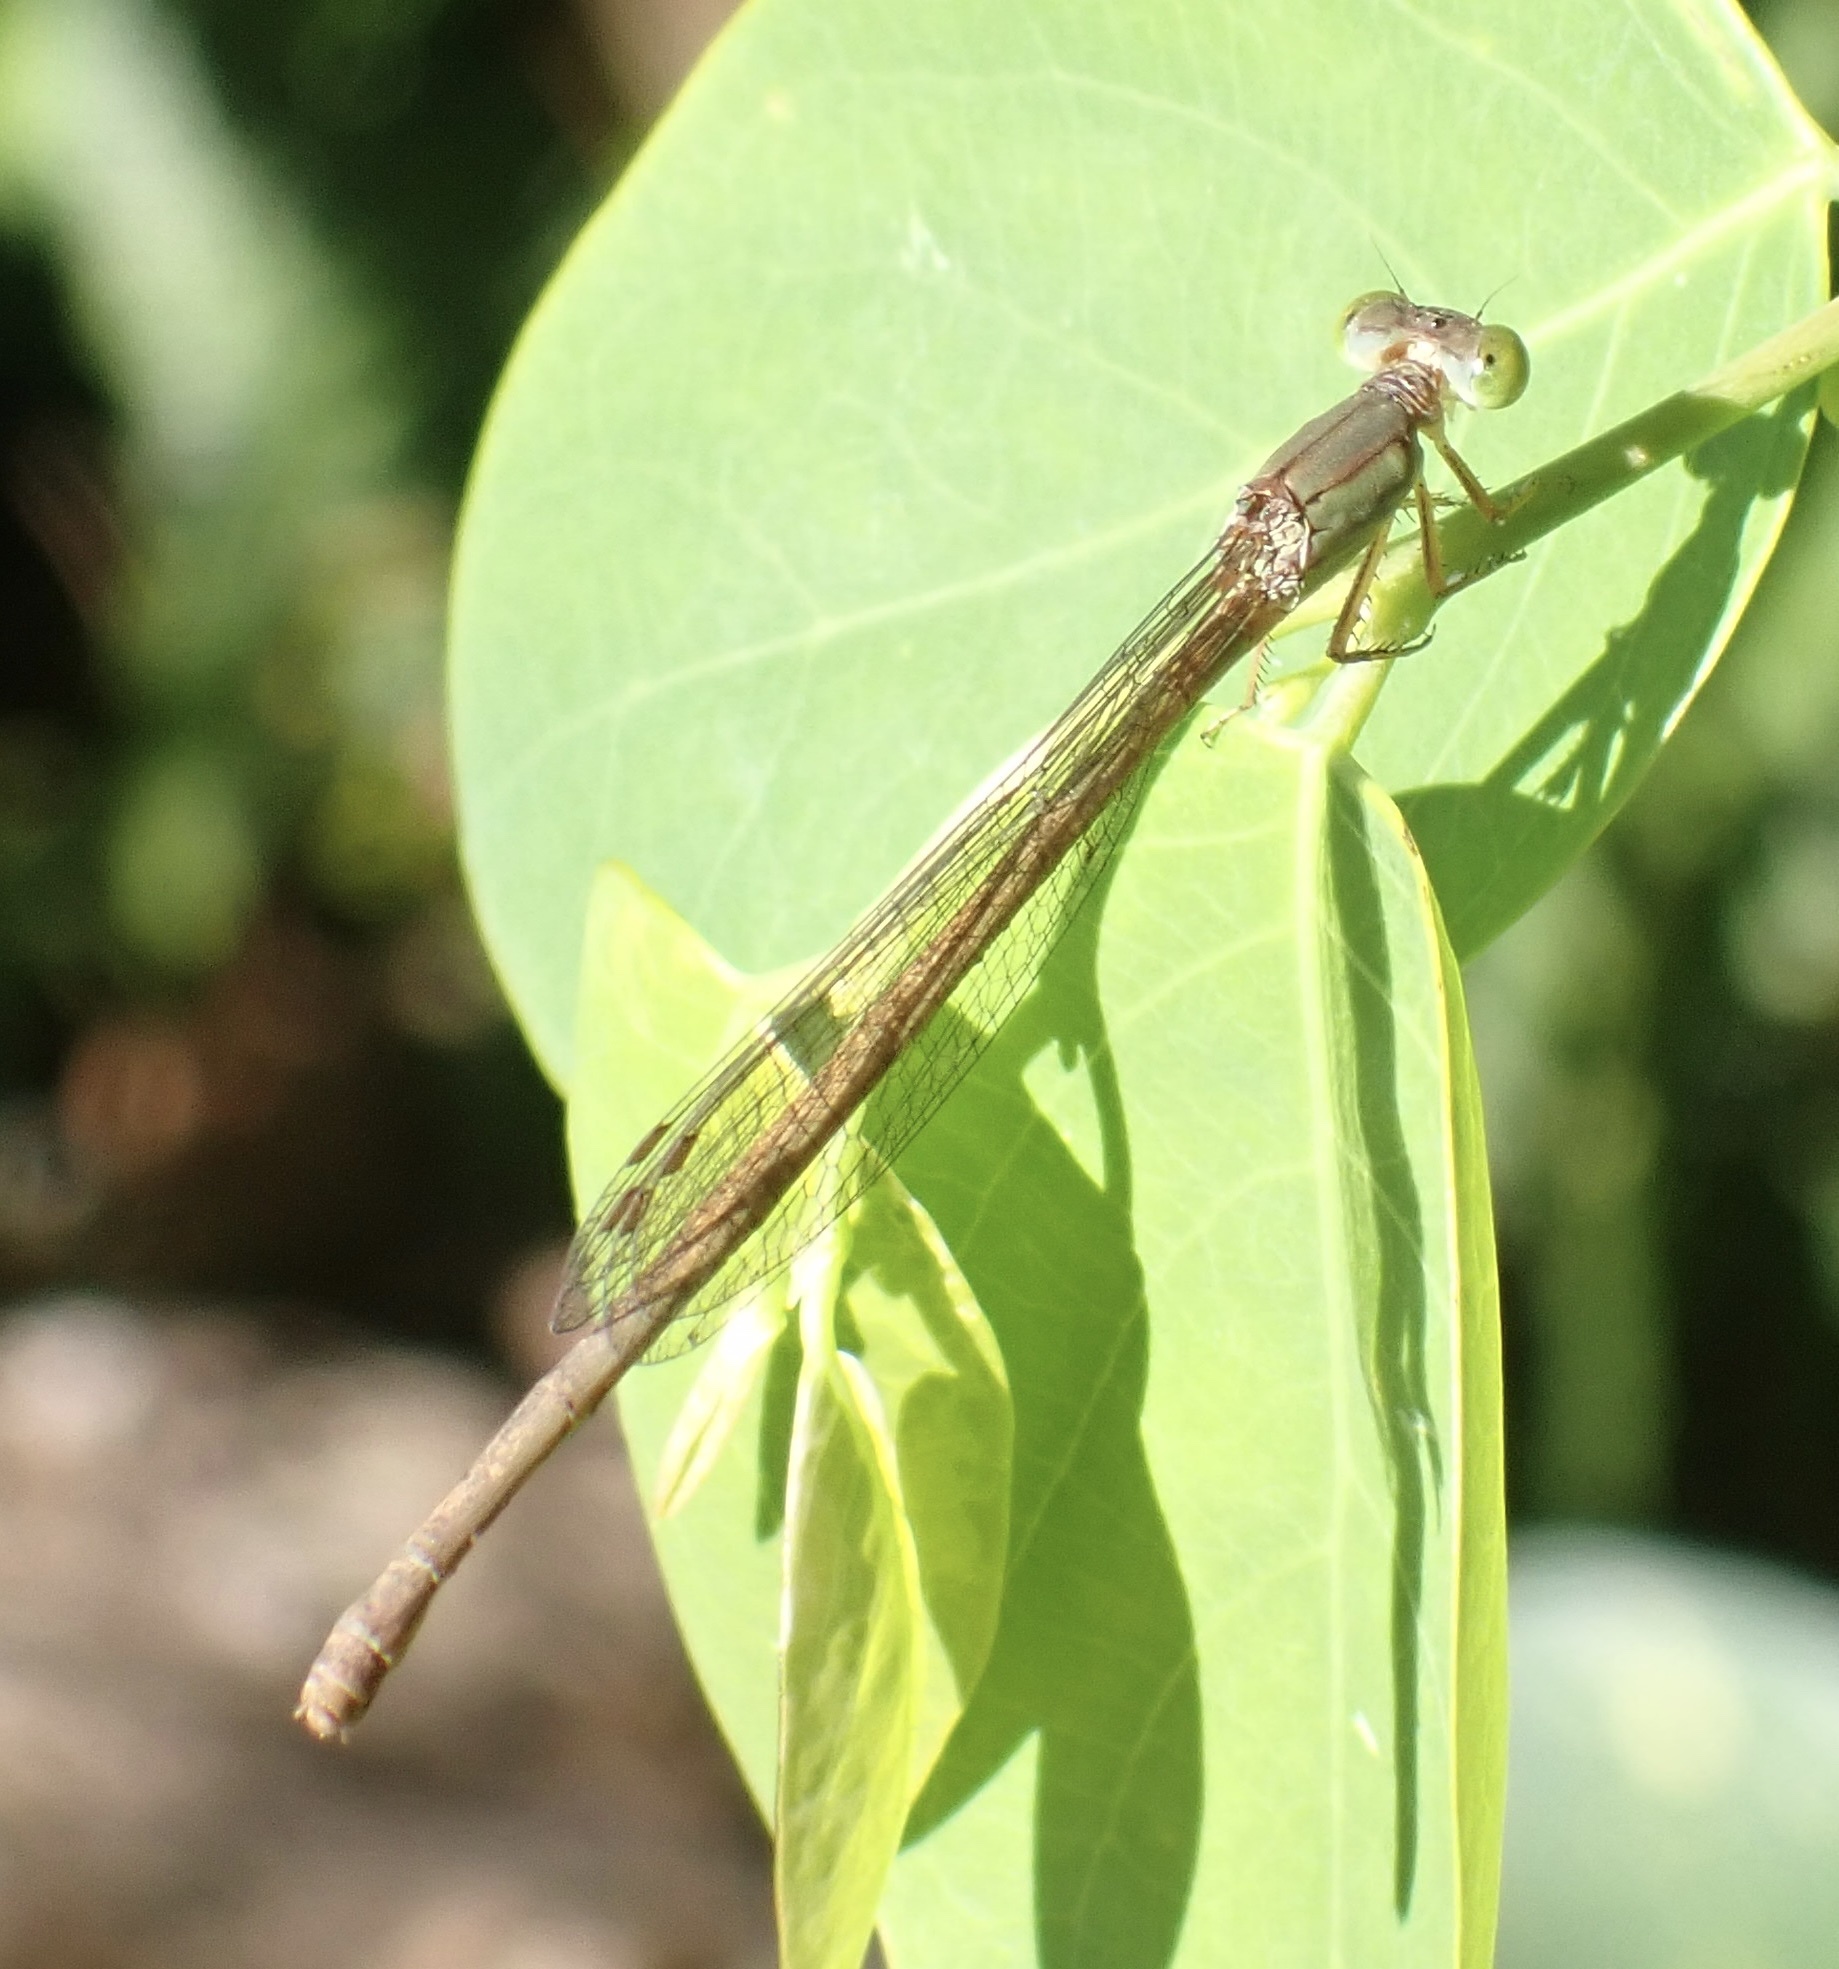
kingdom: Animalia
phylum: Arthropoda
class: Insecta
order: Odonata
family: Coenagrionidae
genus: Ceriagrion
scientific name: Ceriagrion glabrum
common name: Common pond damsel
